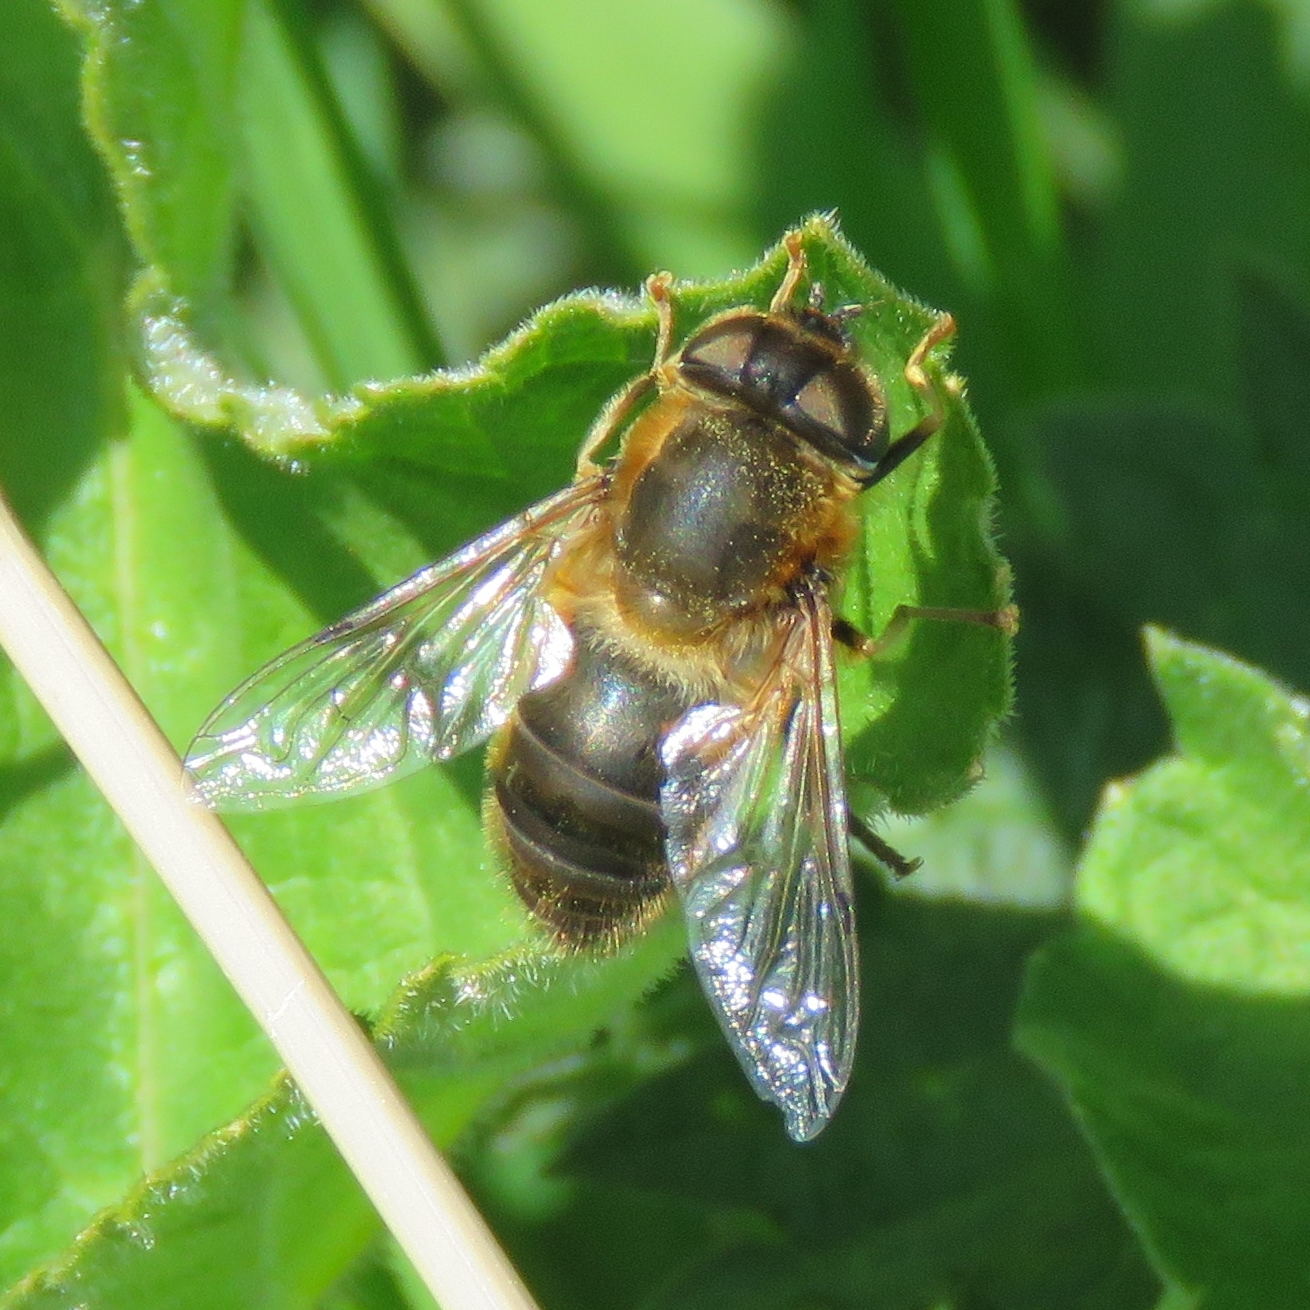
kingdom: Animalia
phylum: Arthropoda
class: Insecta
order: Diptera
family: Syrphidae
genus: Eristalis
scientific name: Eristalis pertinax
